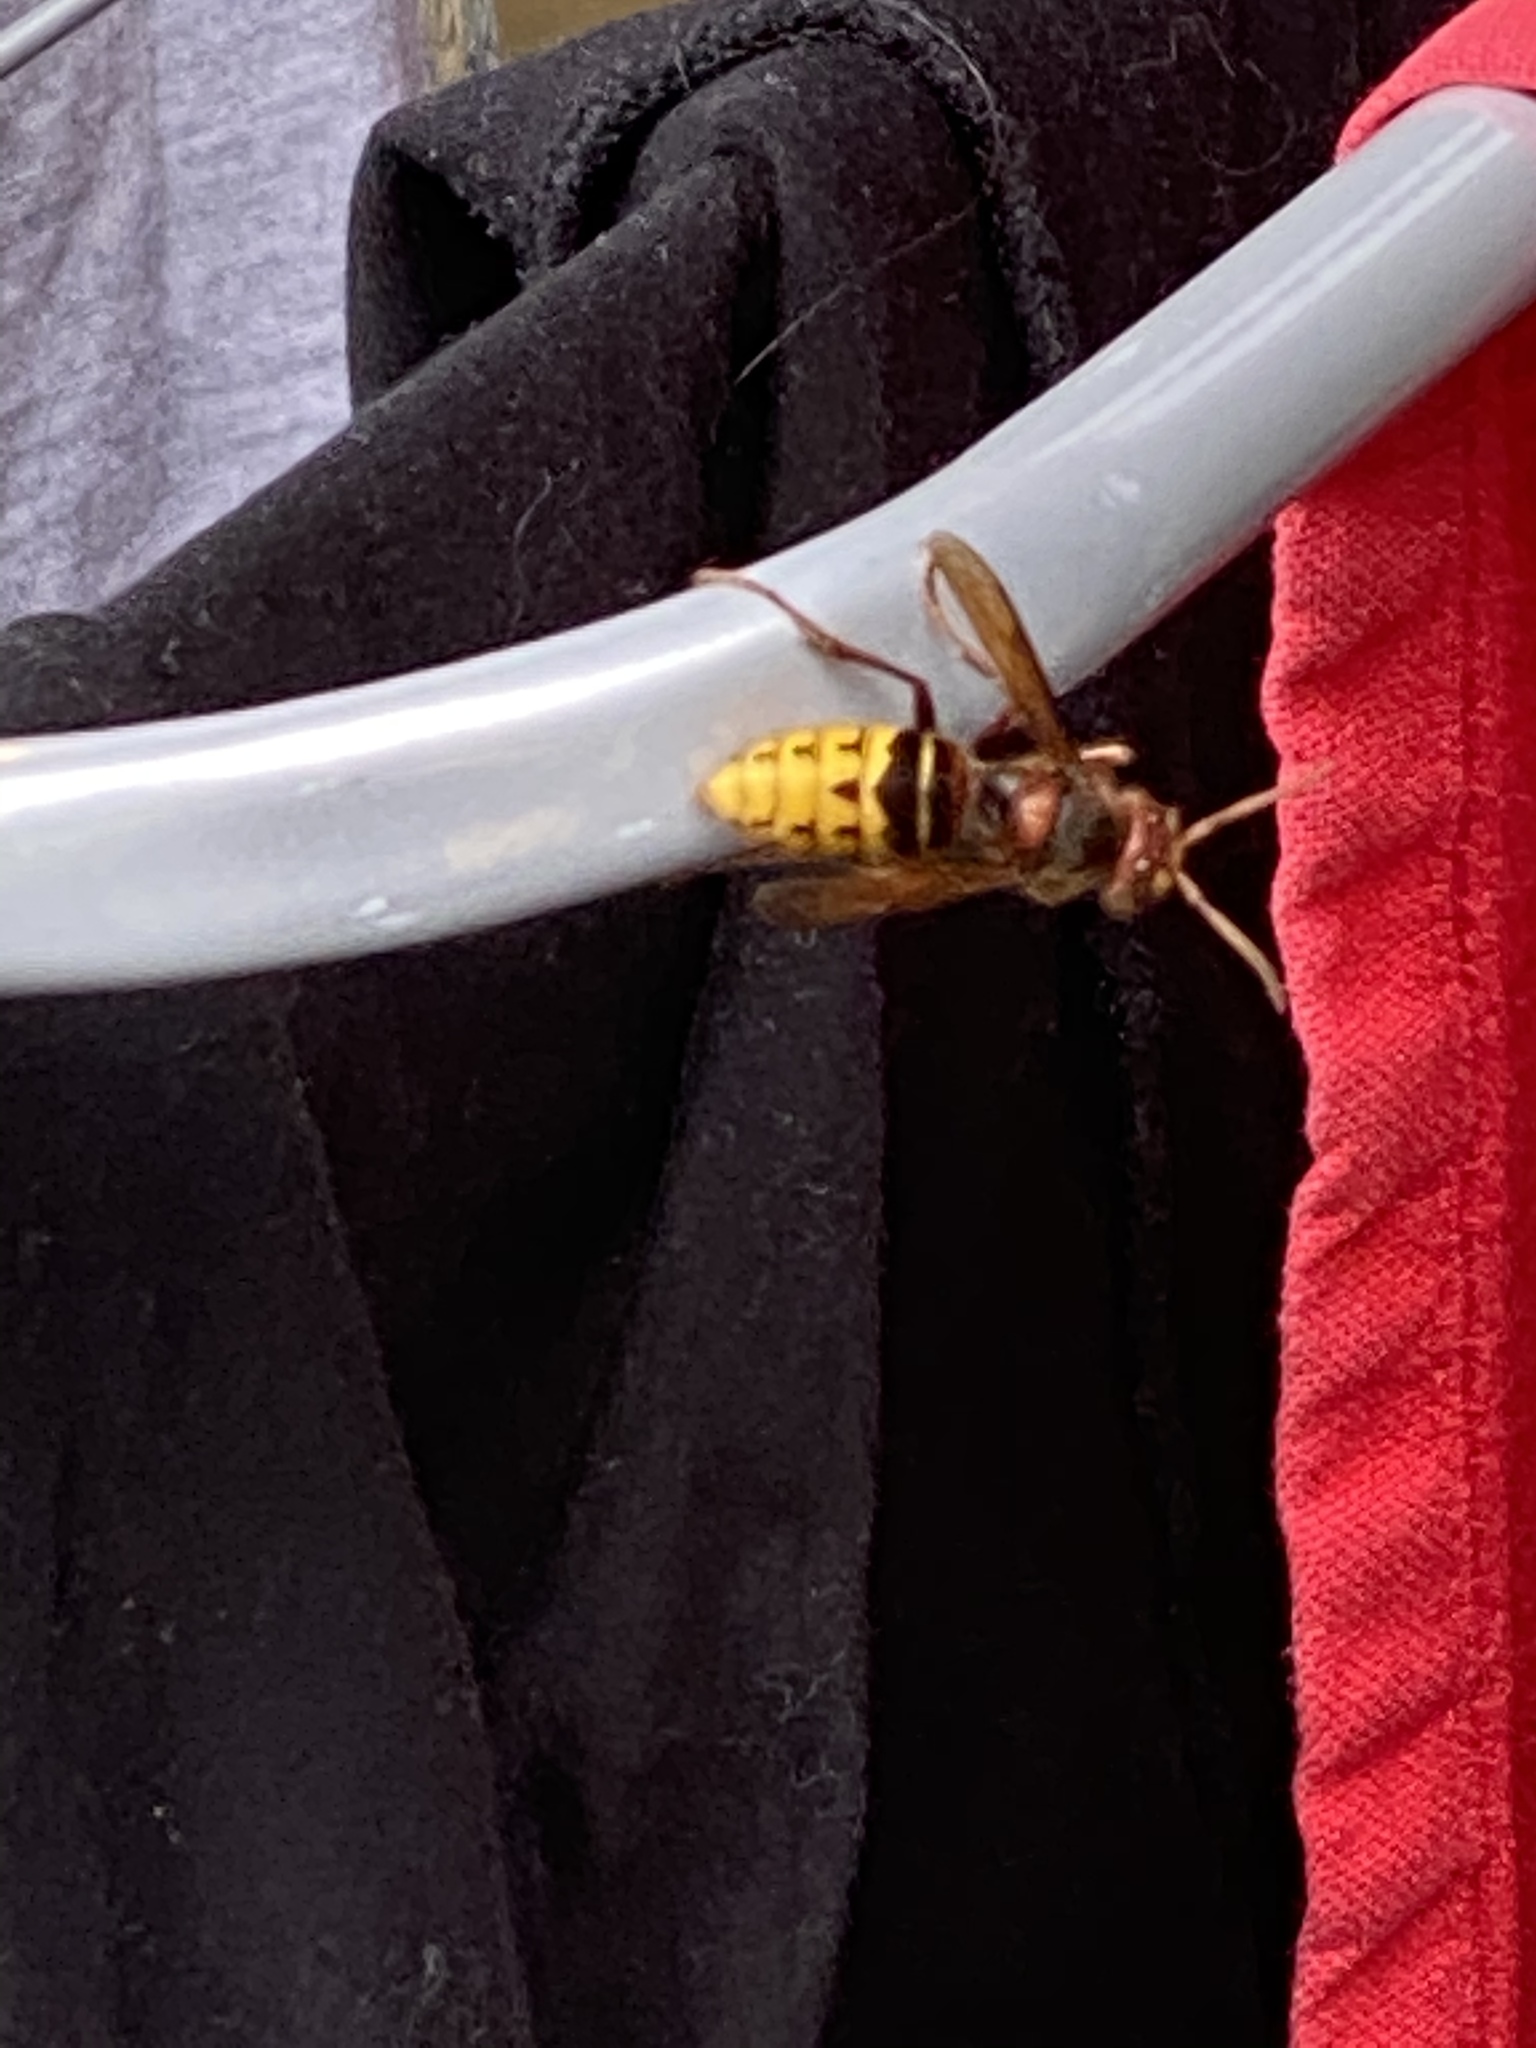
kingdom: Animalia
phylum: Arthropoda
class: Insecta
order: Hymenoptera
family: Vespidae
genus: Vespa
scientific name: Vespa crabro
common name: Hornet
